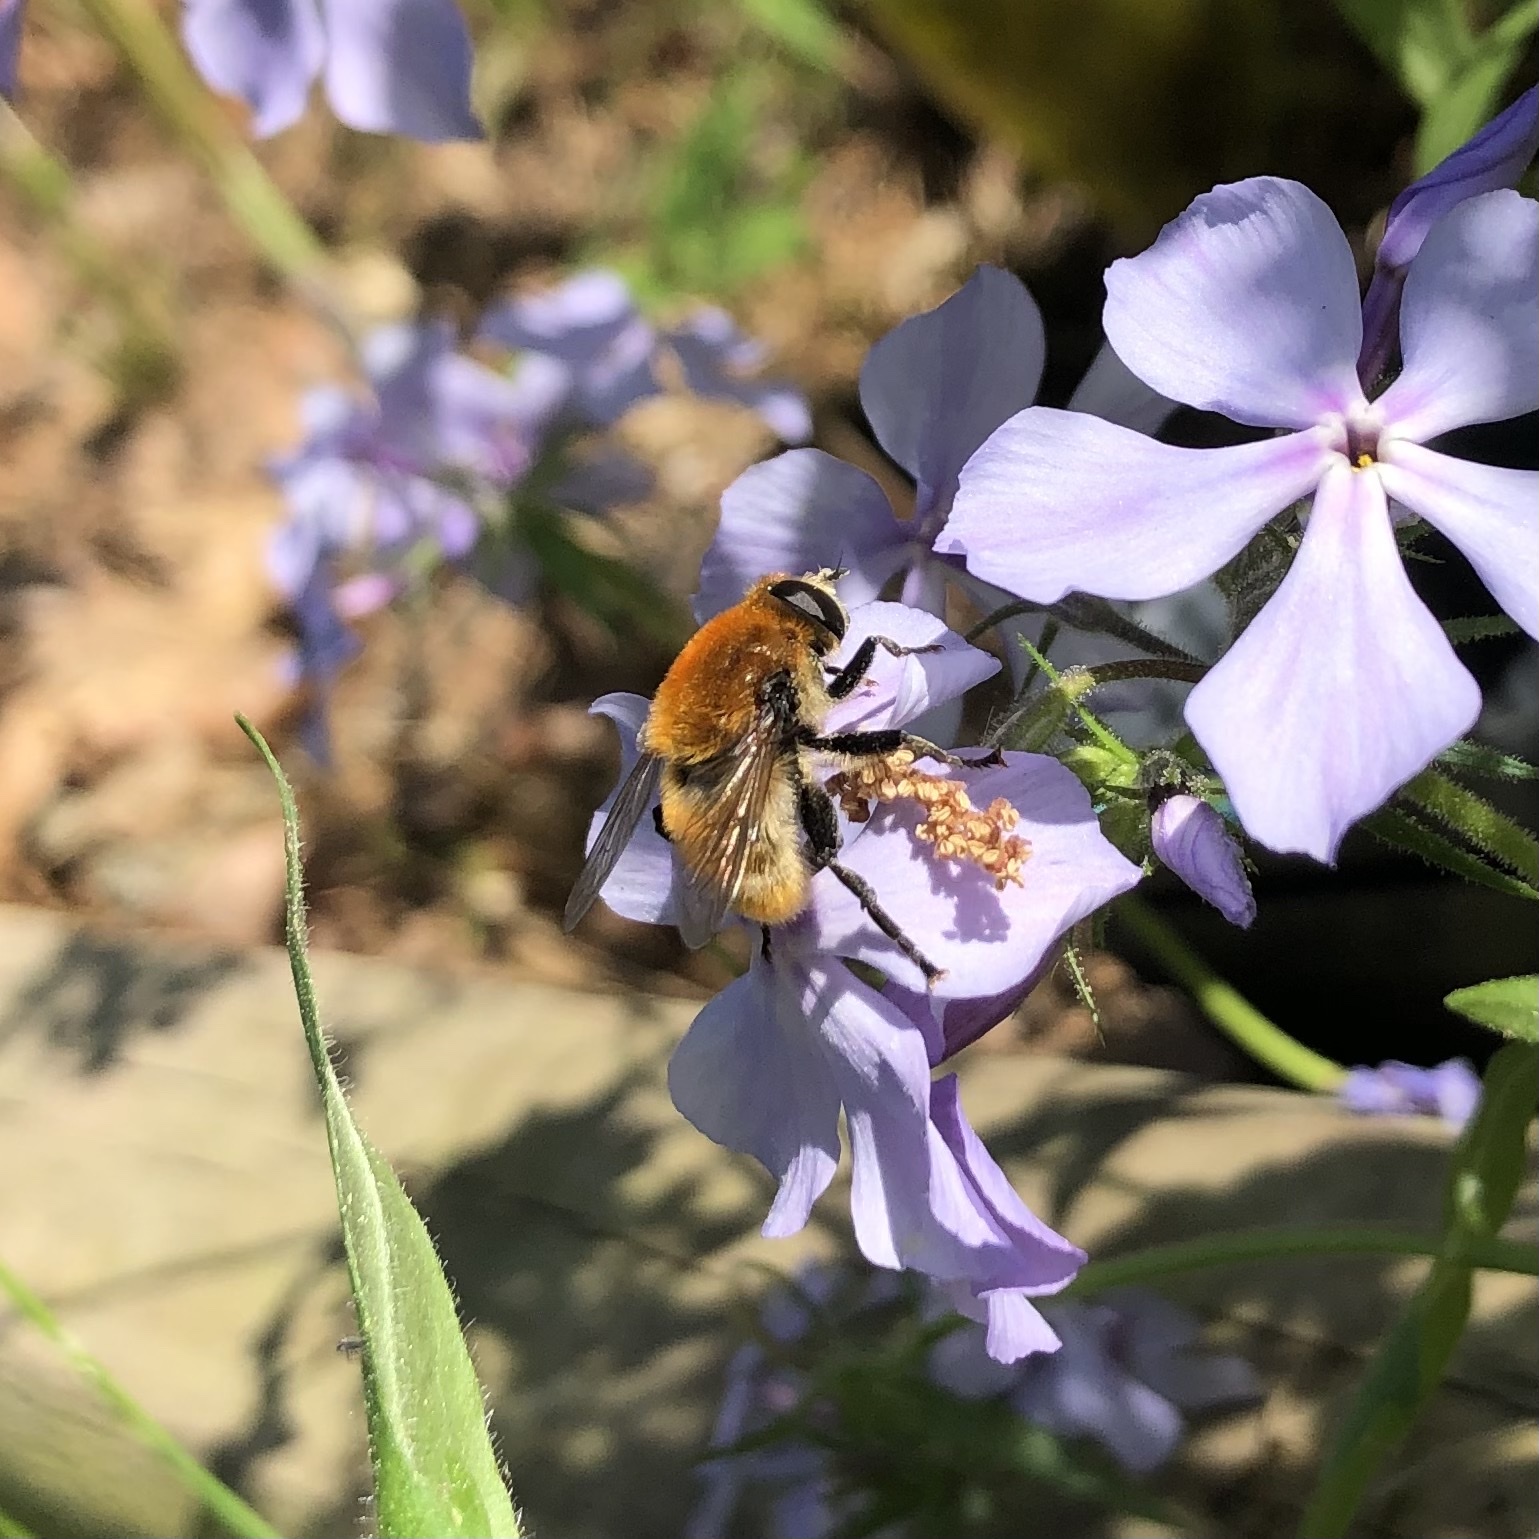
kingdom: Animalia
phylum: Arthropoda
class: Insecta
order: Diptera
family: Syrphidae
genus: Merodon
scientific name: Merodon equestris
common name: Greater bulb-fly
